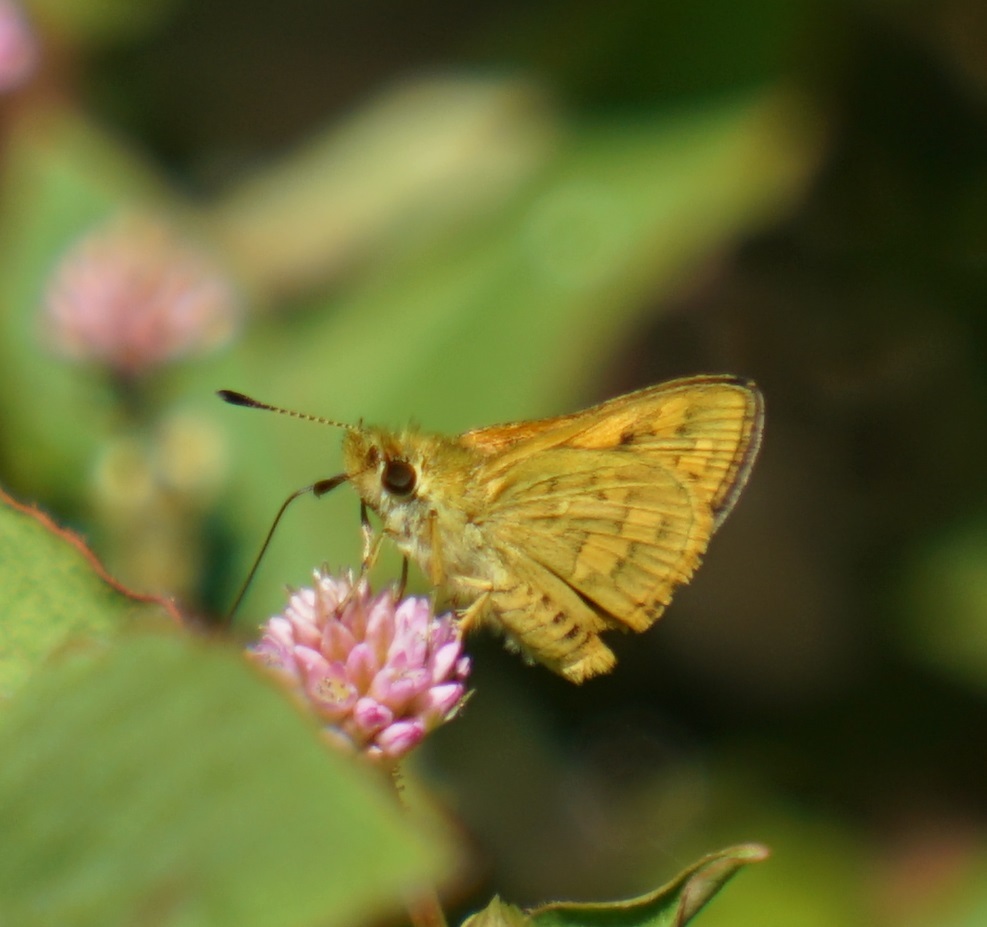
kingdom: Animalia
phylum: Arthropoda
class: Insecta
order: Lepidoptera
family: Hesperiidae
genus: Ocybadistes
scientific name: Ocybadistes walkeri
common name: Yellow-banded dart
